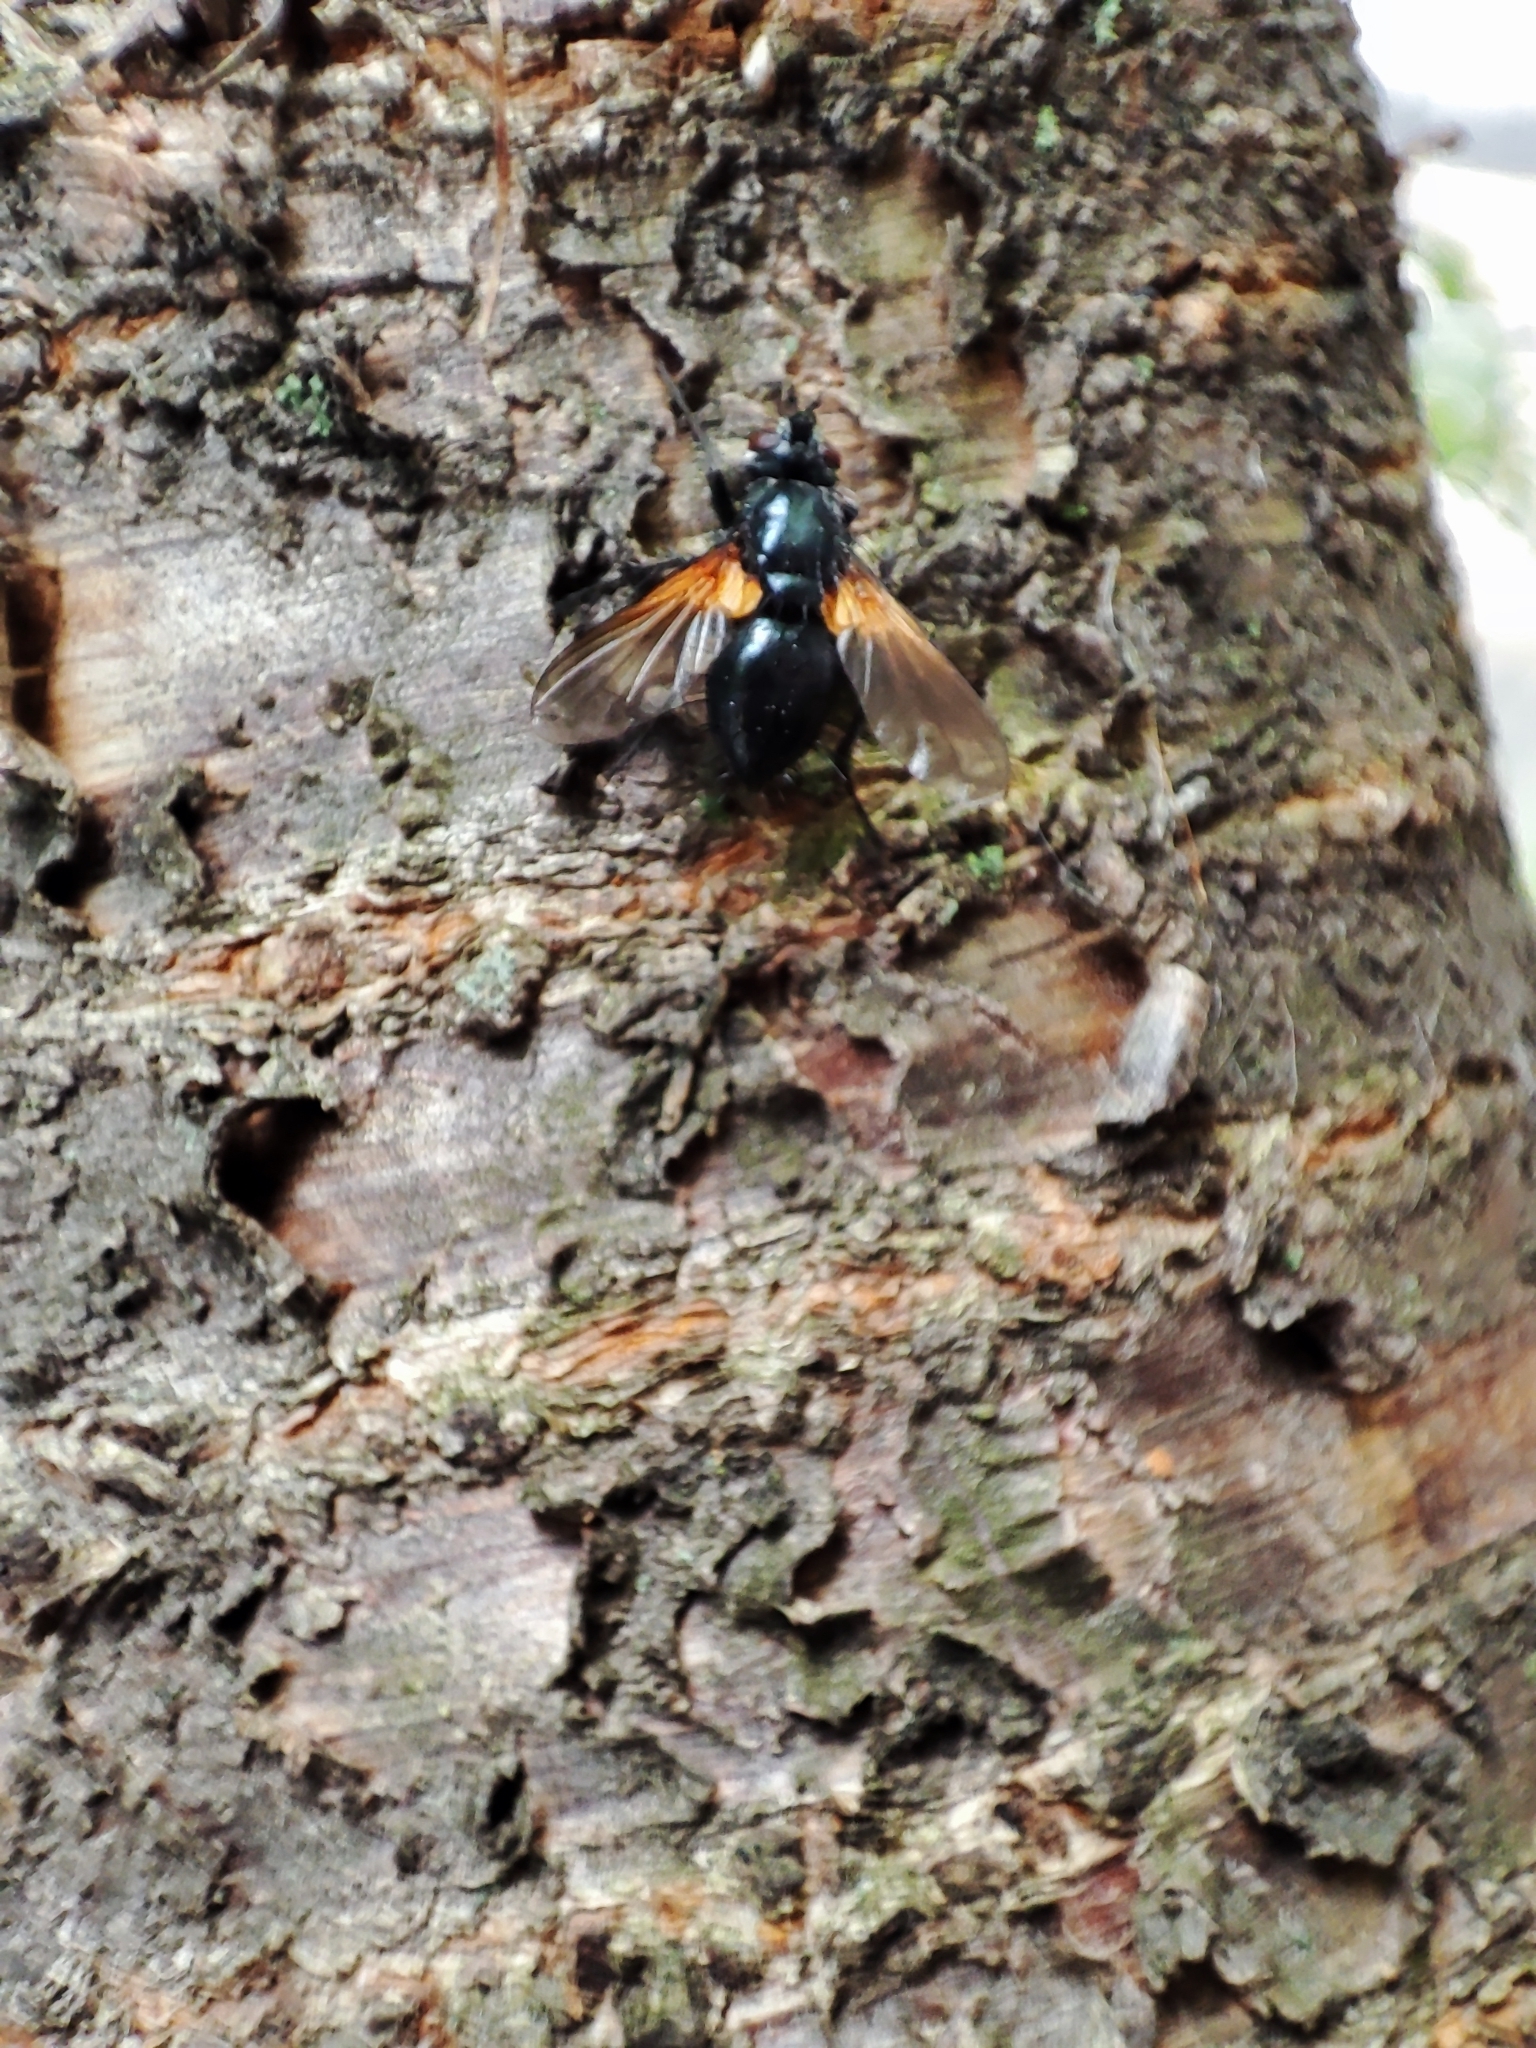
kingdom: Animalia
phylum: Arthropoda
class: Insecta
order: Diptera
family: Tachinidae
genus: Zophomyia
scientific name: Zophomyia temula
